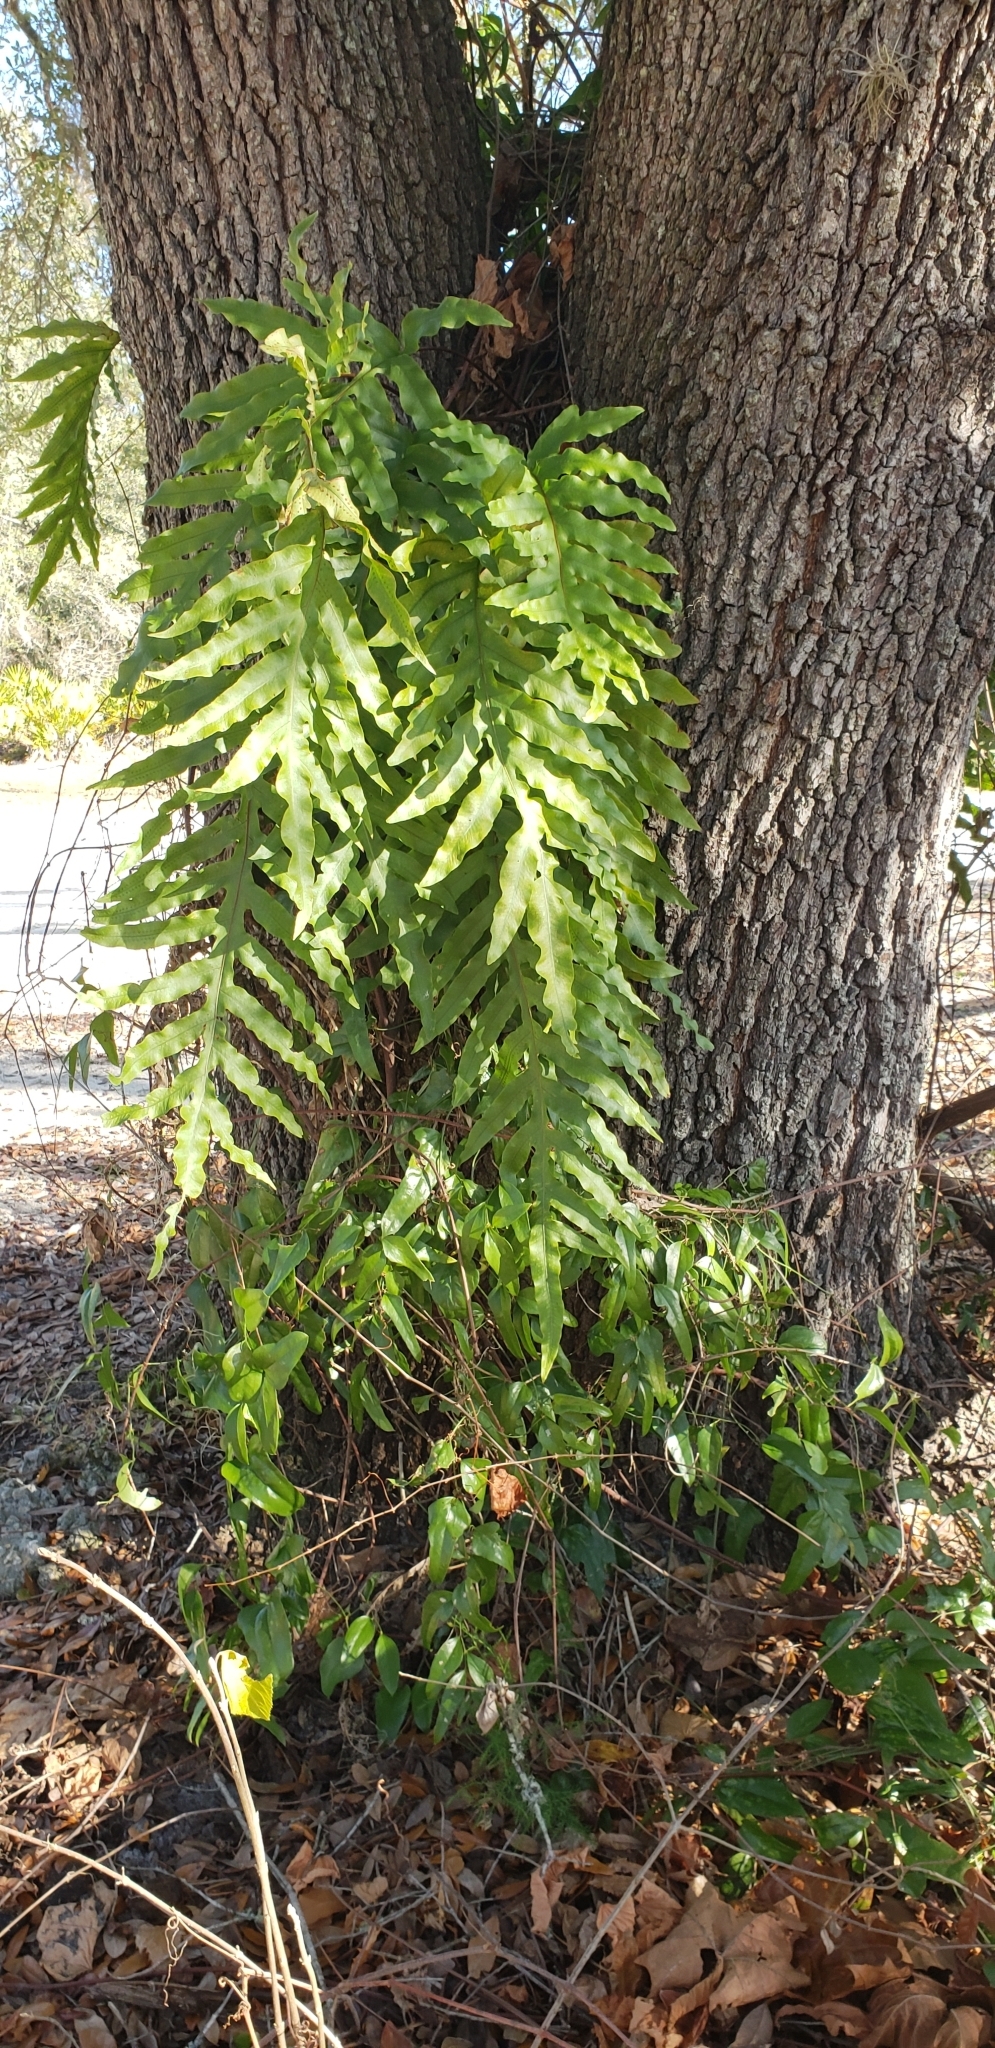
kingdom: Plantae
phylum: Tracheophyta
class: Polypodiopsida
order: Polypodiales
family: Polypodiaceae
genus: Phlebodium
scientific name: Phlebodium aureum
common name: Gold-foot fern
